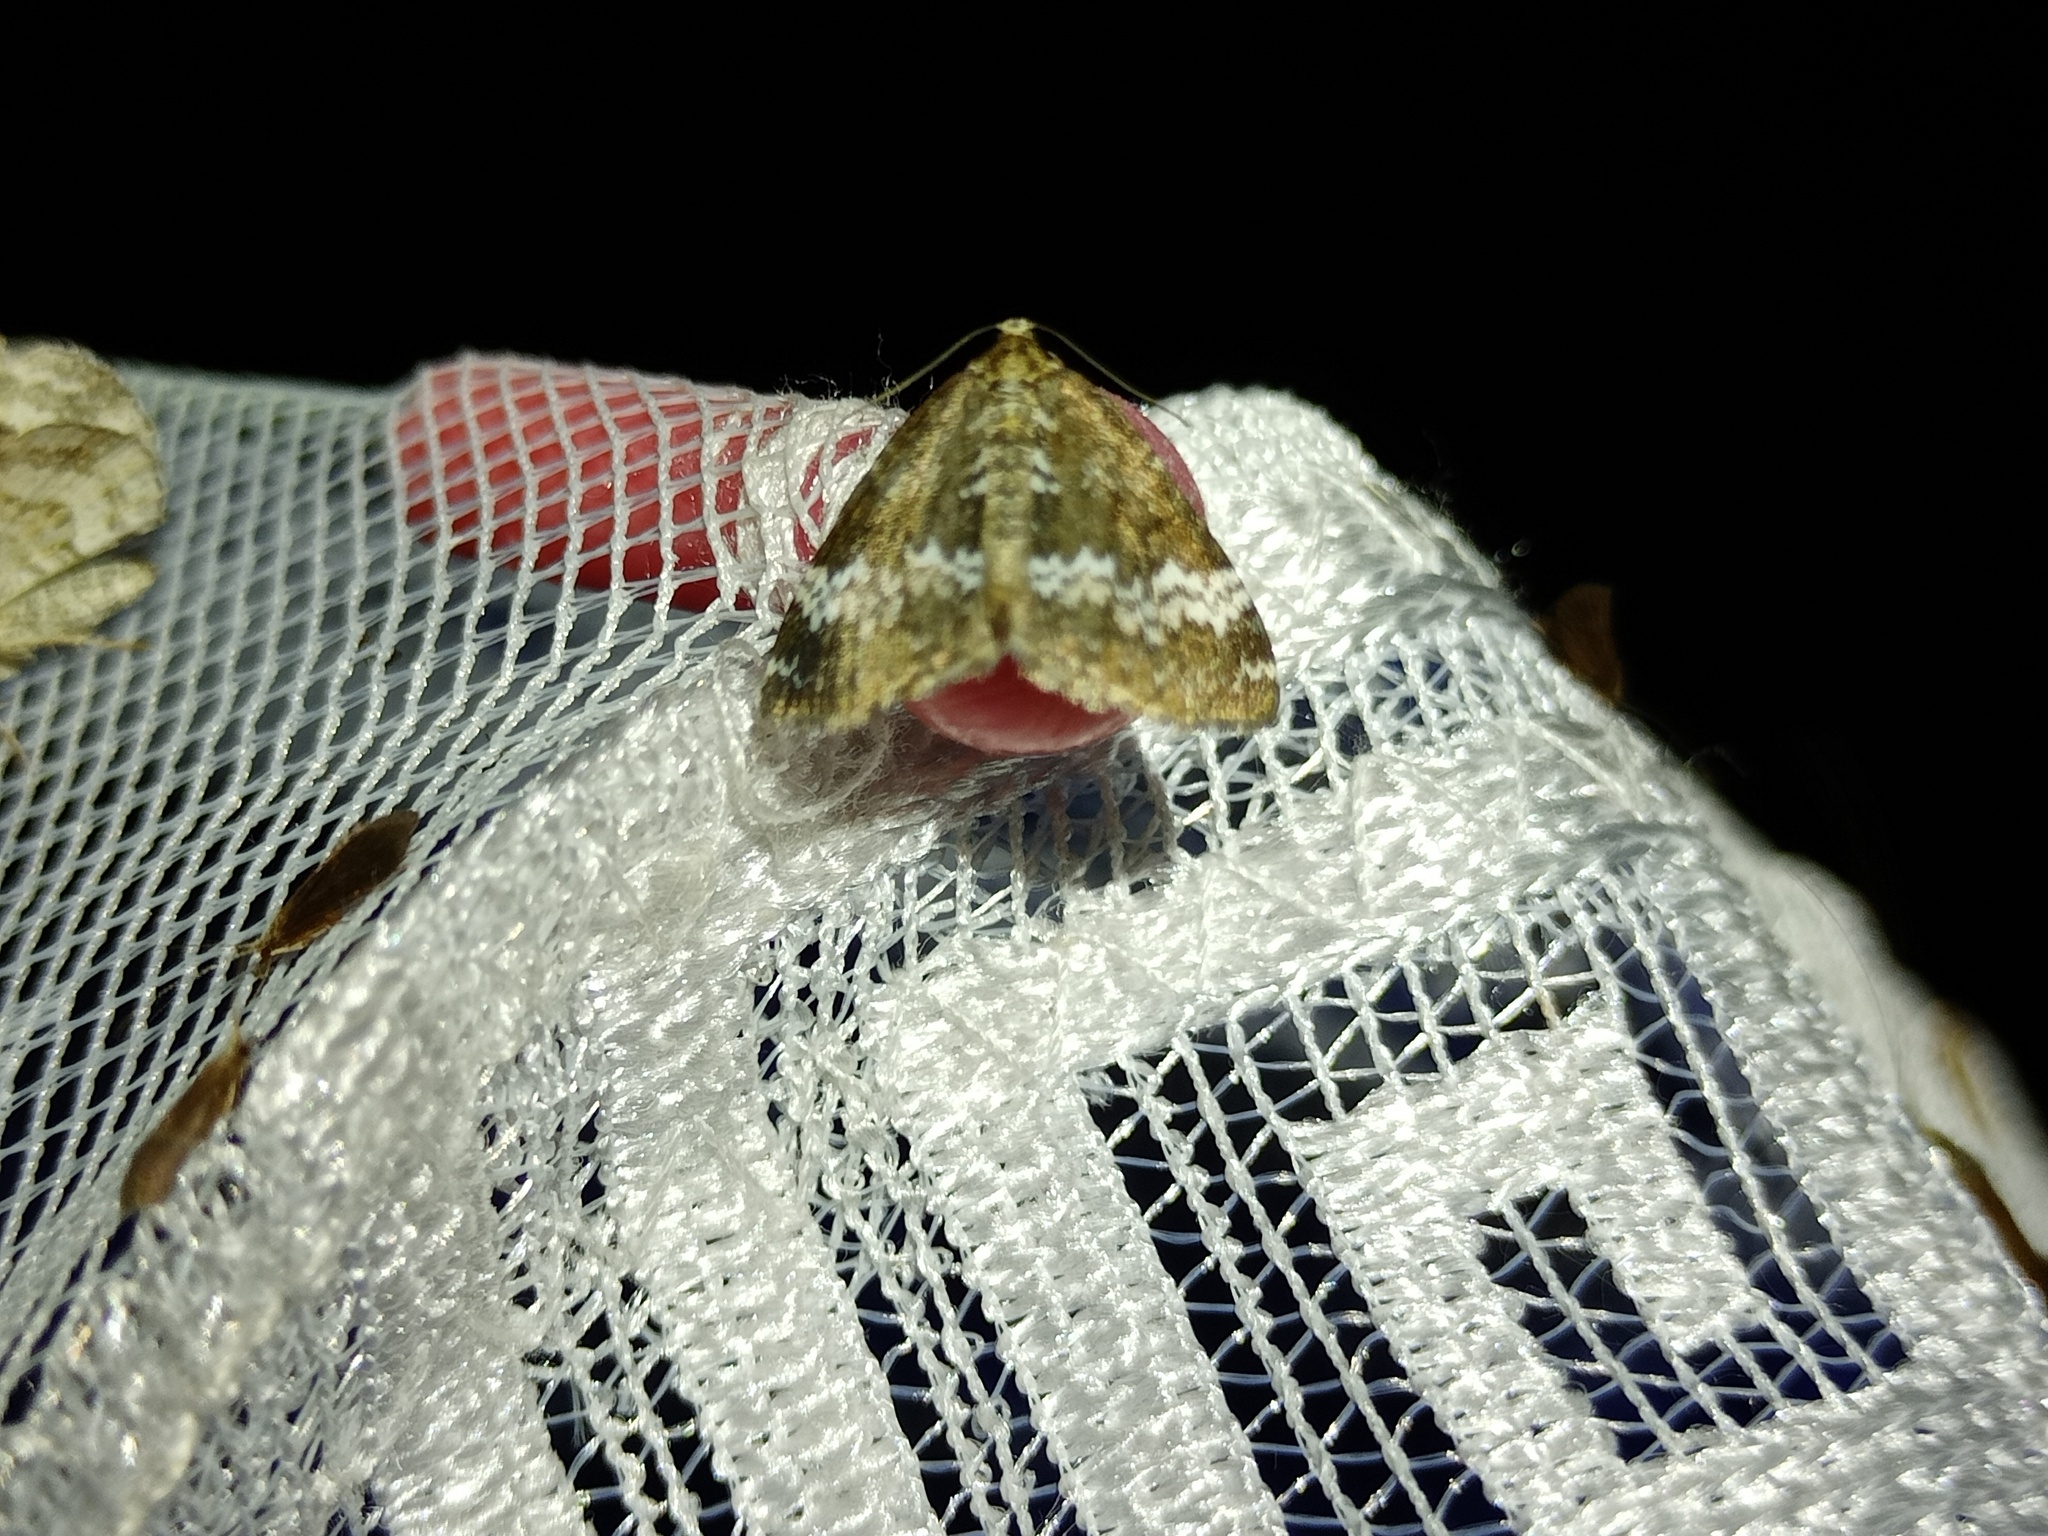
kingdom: Animalia
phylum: Arthropoda
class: Insecta
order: Lepidoptera
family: Geometridae
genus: Perizoma
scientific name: Perizoma alchemillata
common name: Small rivulet
